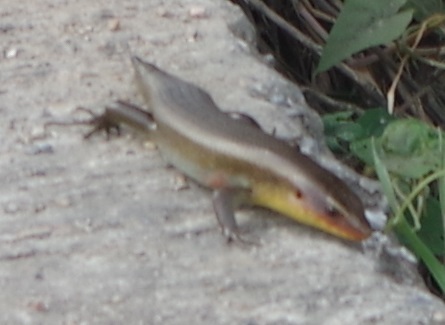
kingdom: Animalia
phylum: Chordata
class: Squamata
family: Scincidae
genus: Eutropis
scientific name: Eutropis multifasciata
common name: Common mabuya
